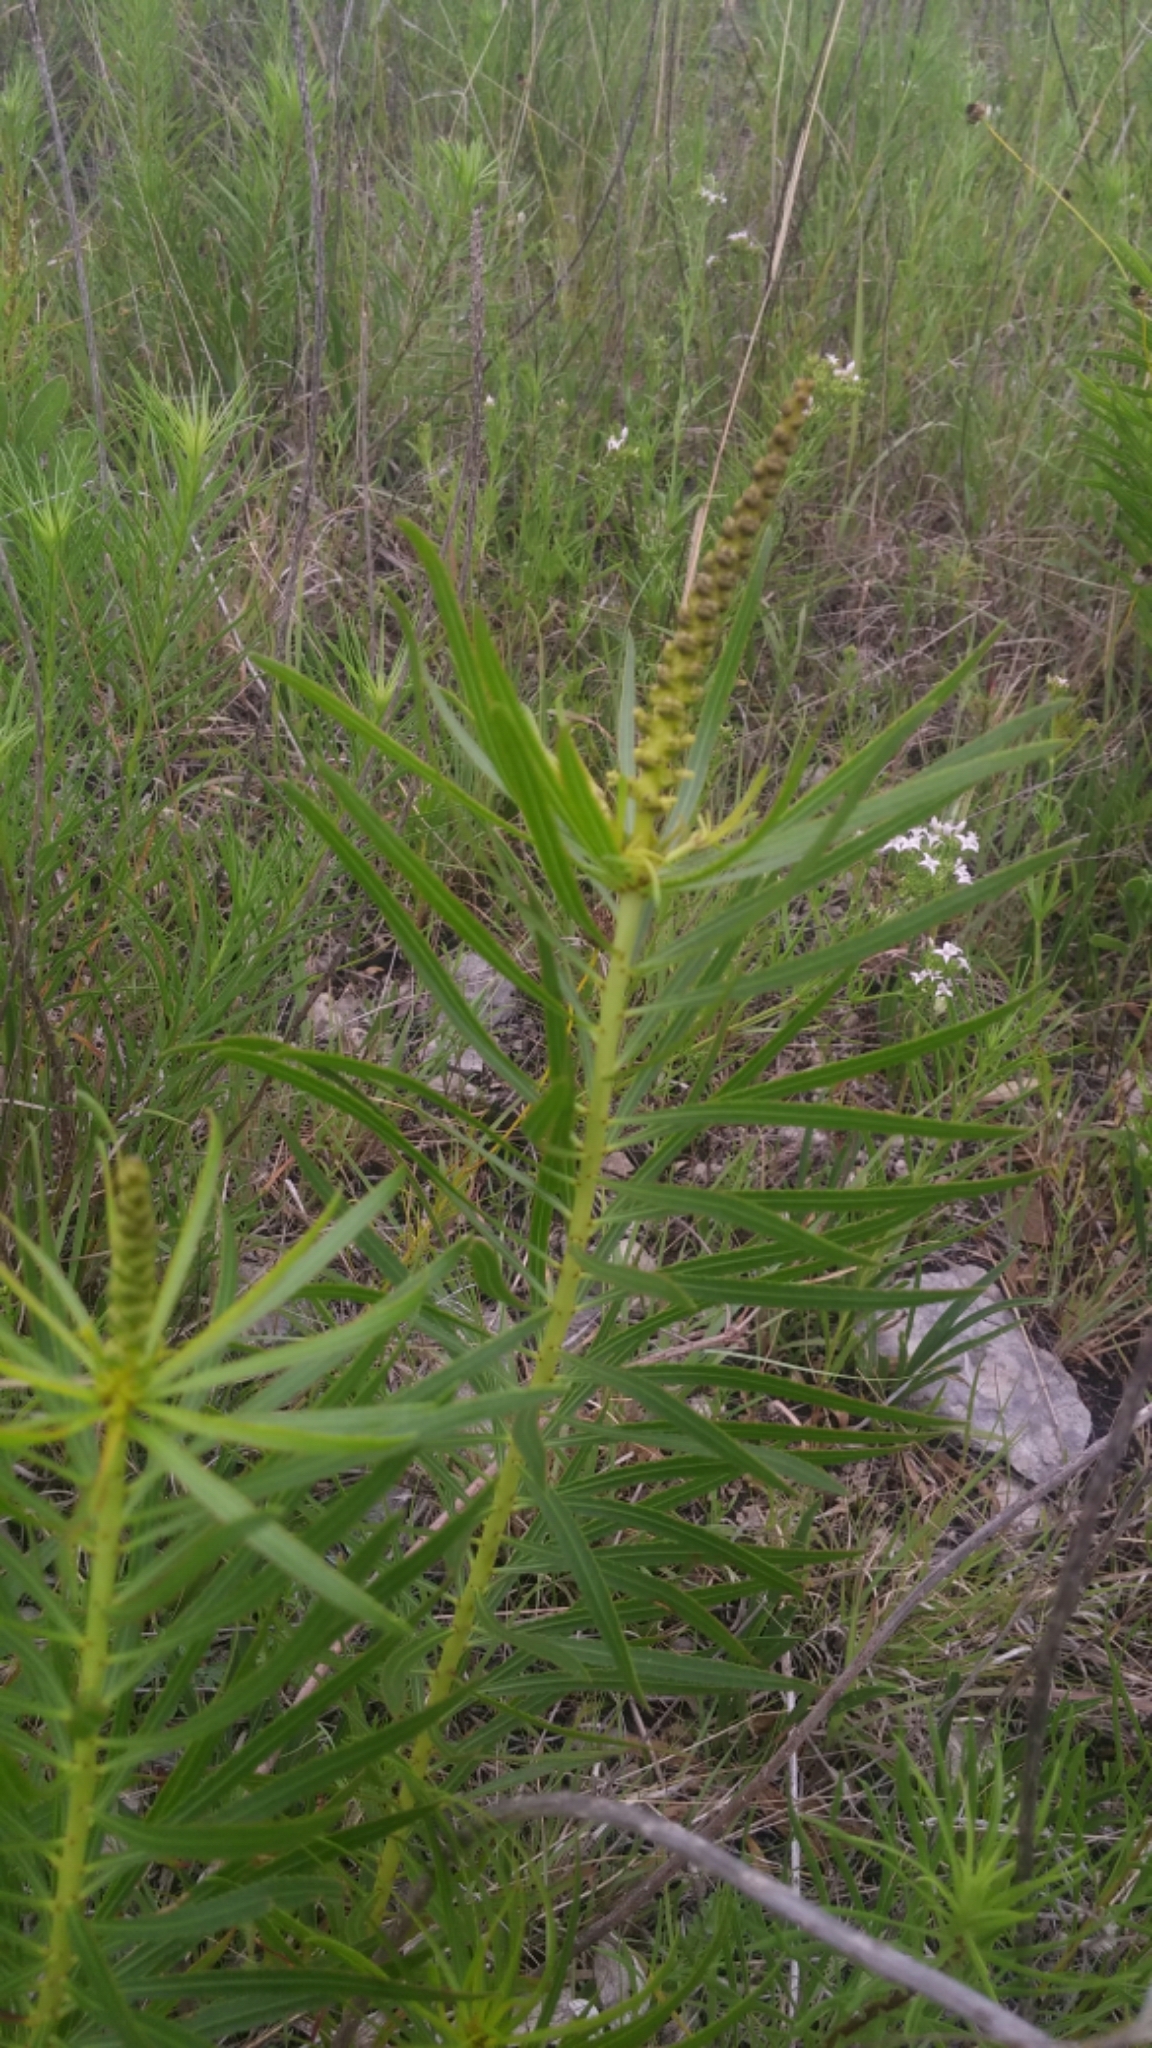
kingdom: Plantae
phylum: Tracheophyta
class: Magnoliopsida
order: Malpighiales
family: Euphorbiaceae
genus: Stillingia
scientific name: Stillingia texana
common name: Texas stillingia
